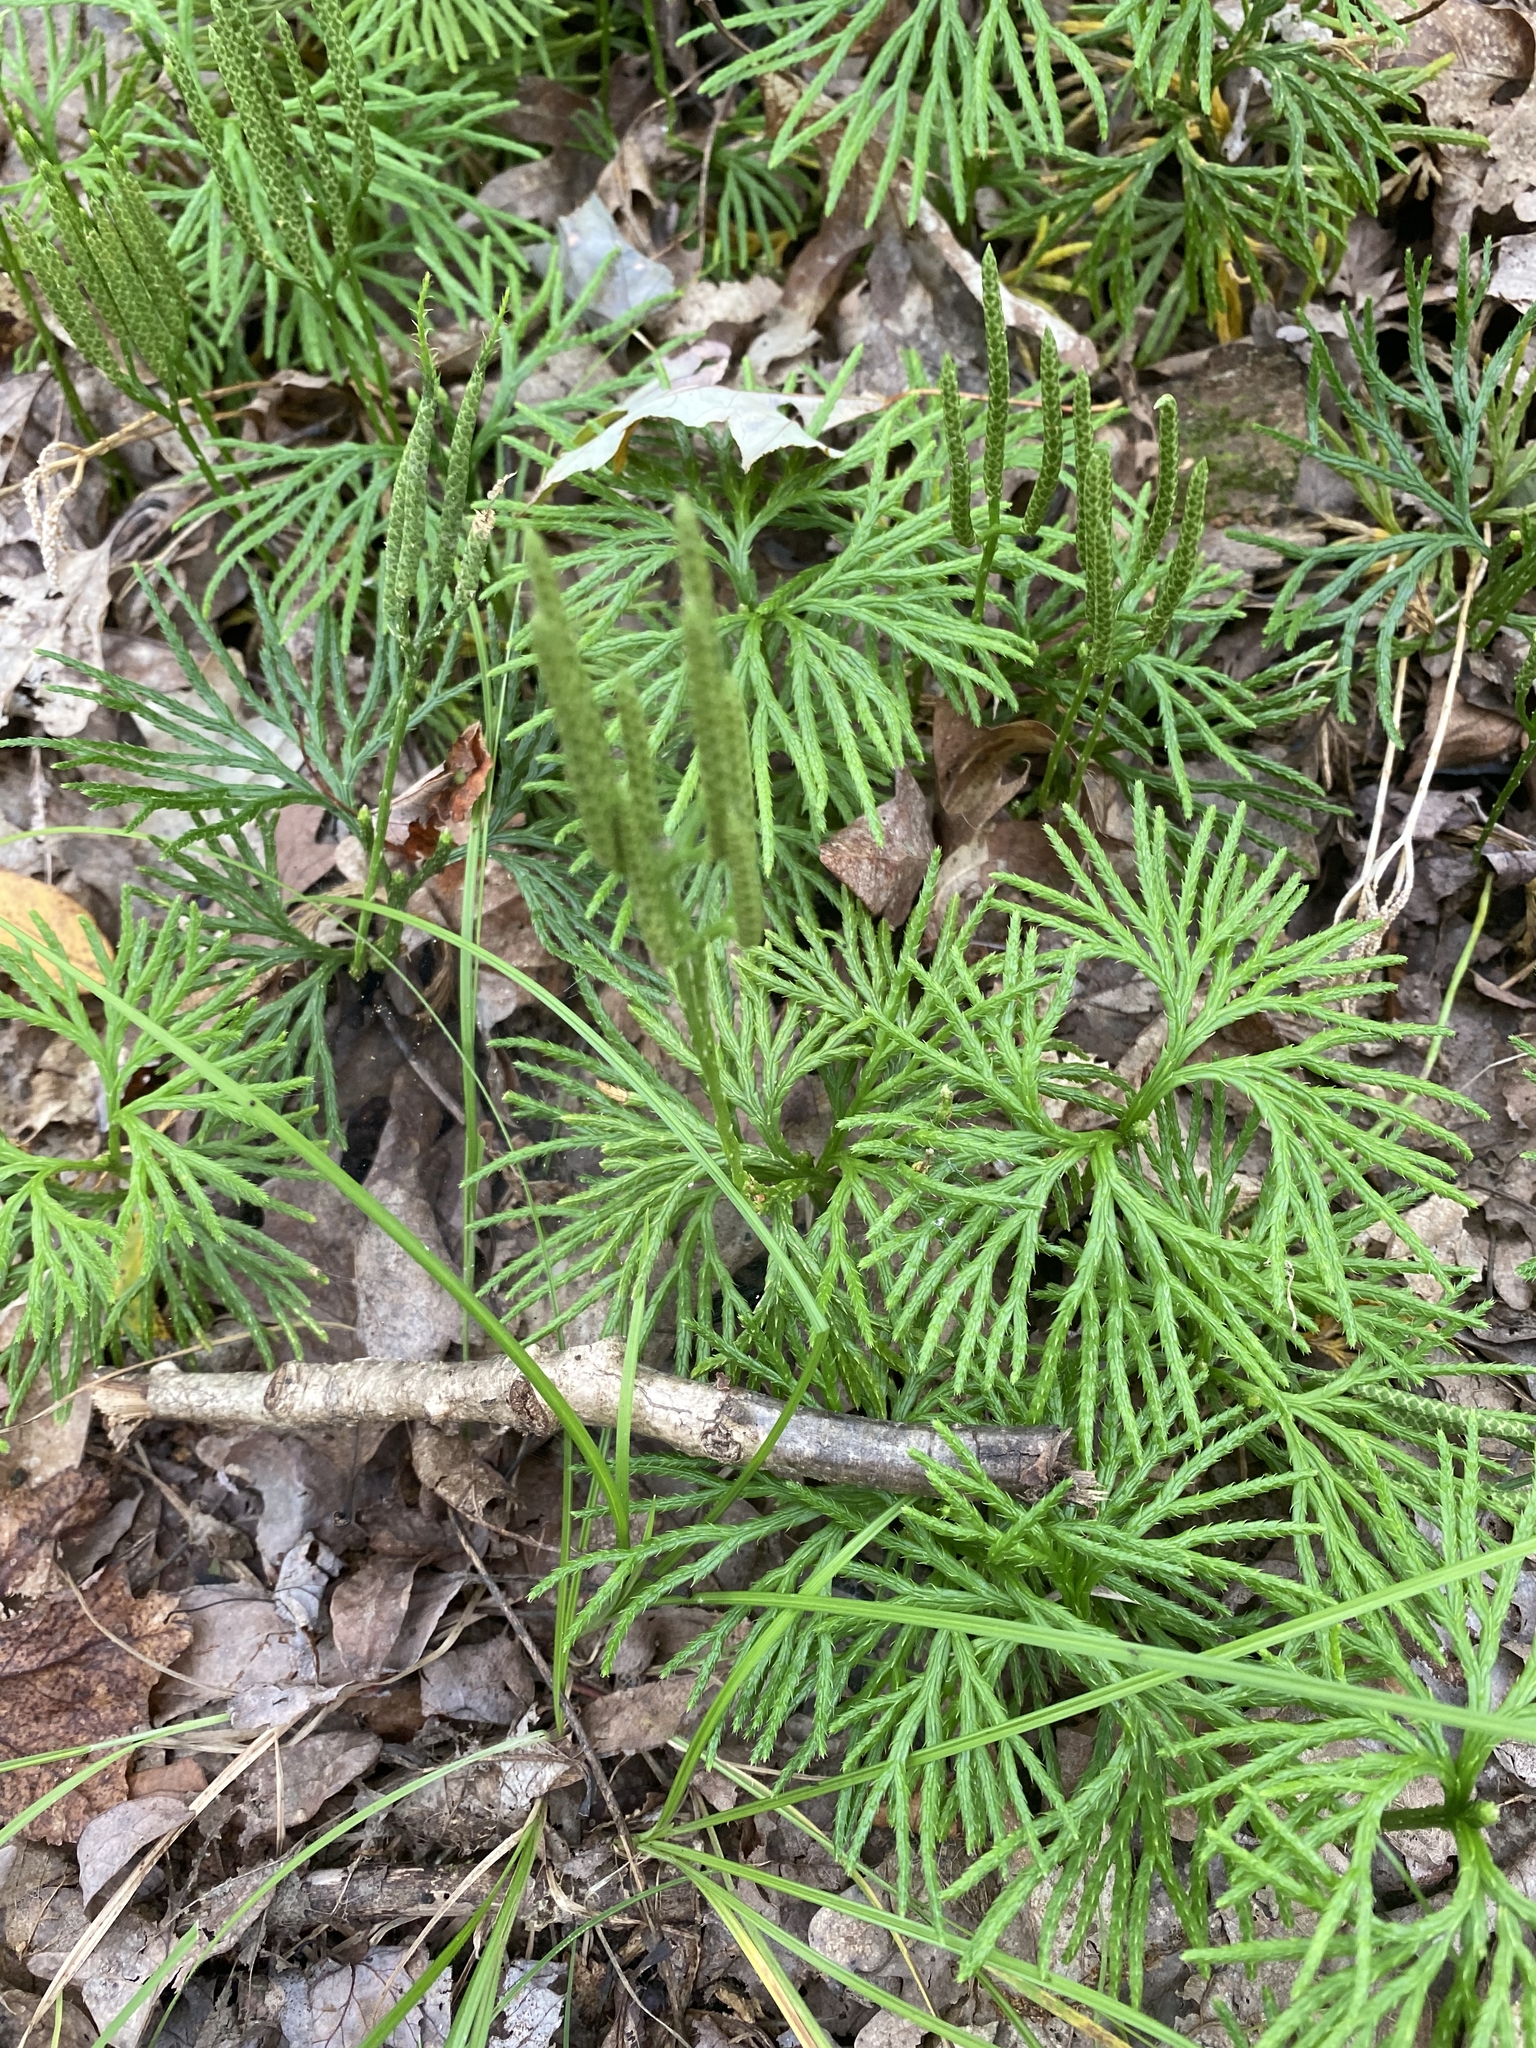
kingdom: Plantae
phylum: Tracheophyta
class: Lycopodiopsida
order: Lycopodiales
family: Lycopodiaceae
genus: Diphasiastrum
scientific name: Diphasiastrum digitatum
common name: Southern running-pine
